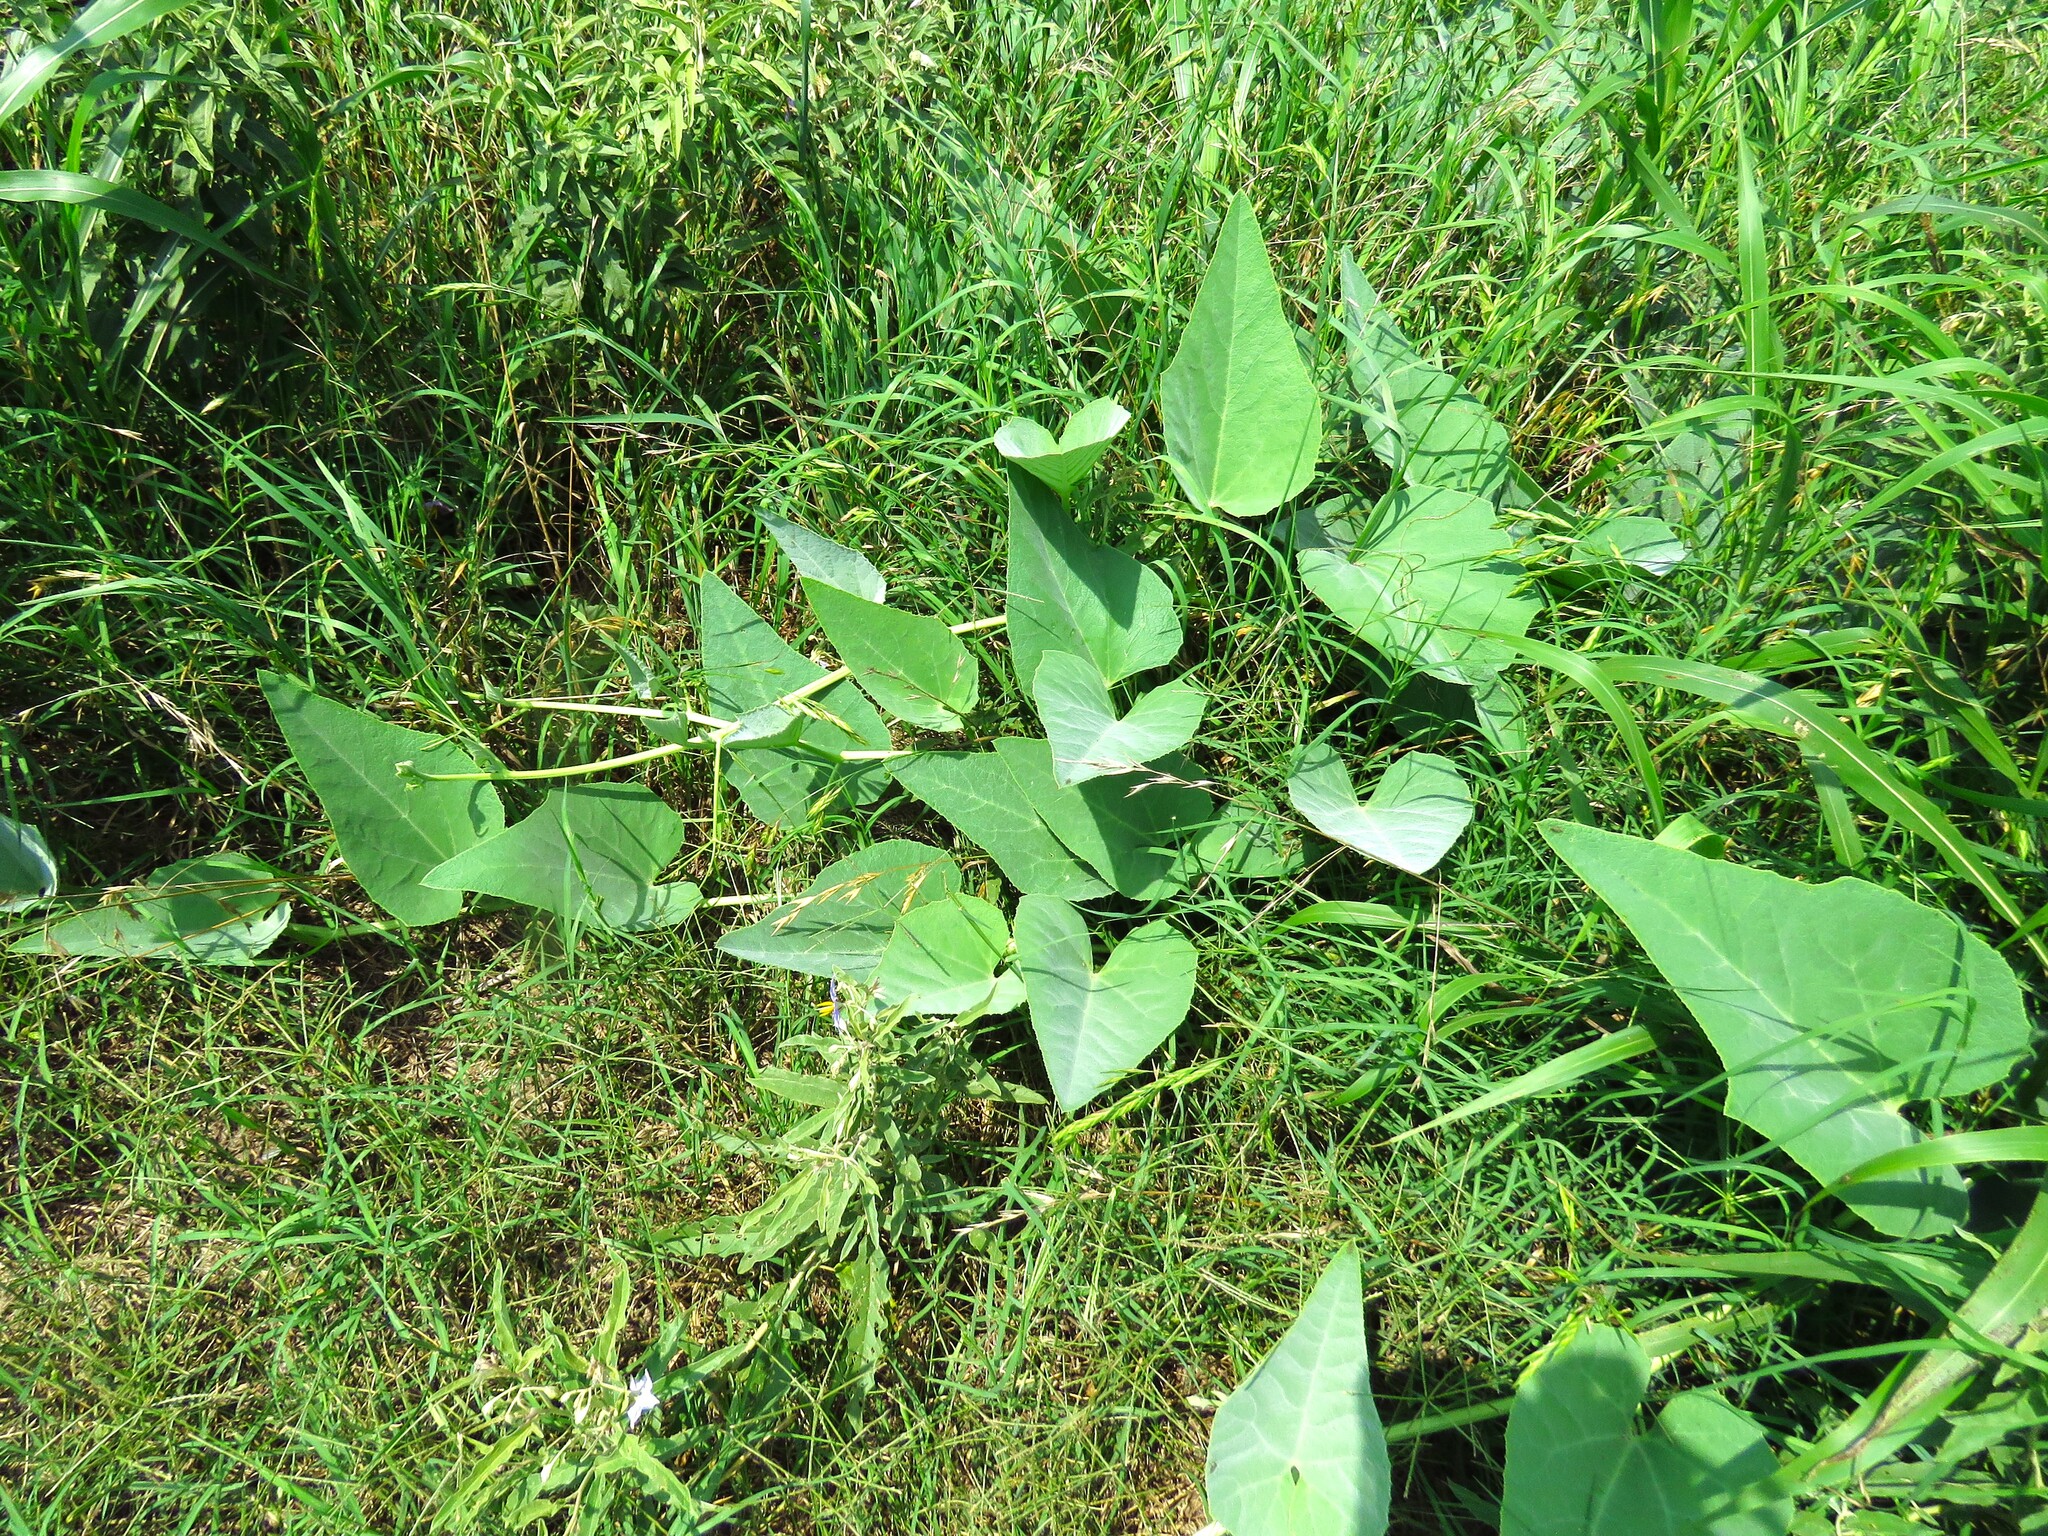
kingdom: Plantae
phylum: Tracheophyta
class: Magnoliopsida
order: Cucurbitales
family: Cucurbitaceae
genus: Cucurbita
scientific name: Cucurbita foetidissima
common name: Buffalo gourd
